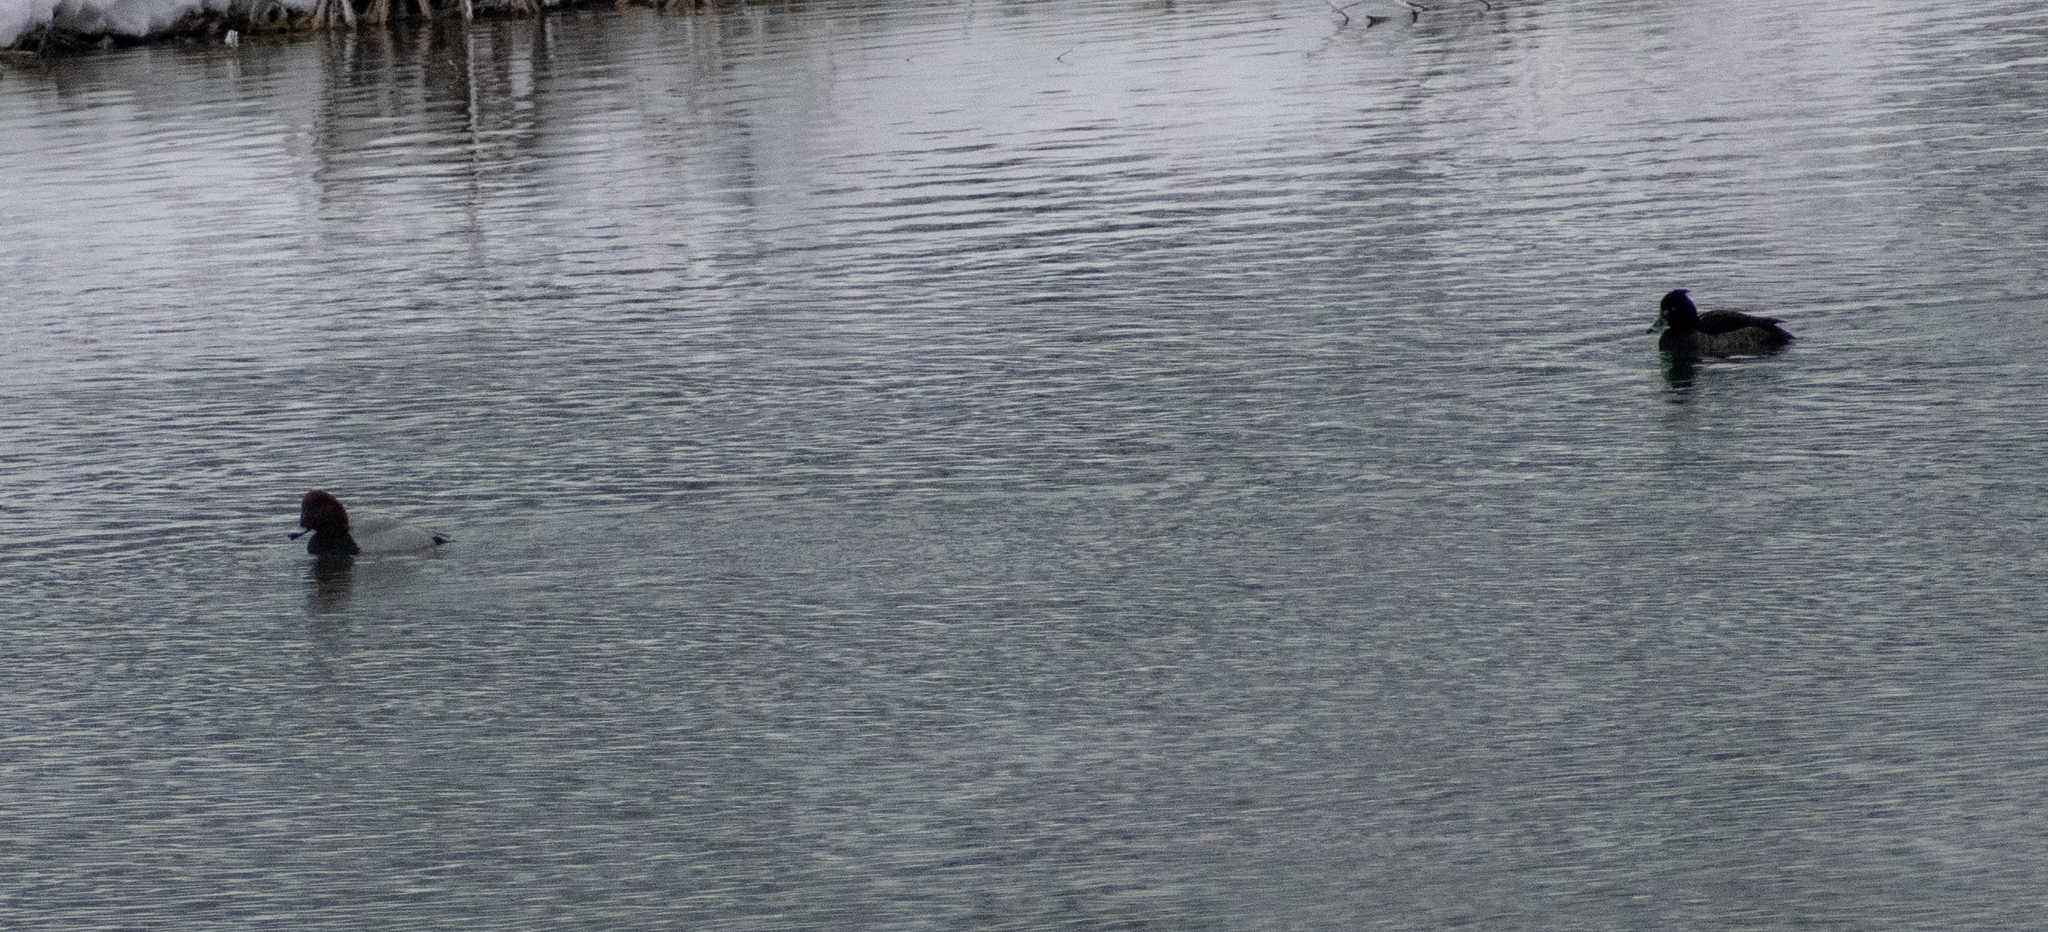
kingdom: Animalia
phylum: Chordata
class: Aves
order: Anseriformes
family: Anatidae
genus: Aythya
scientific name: Aythya fuligula
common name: Tufted duck
